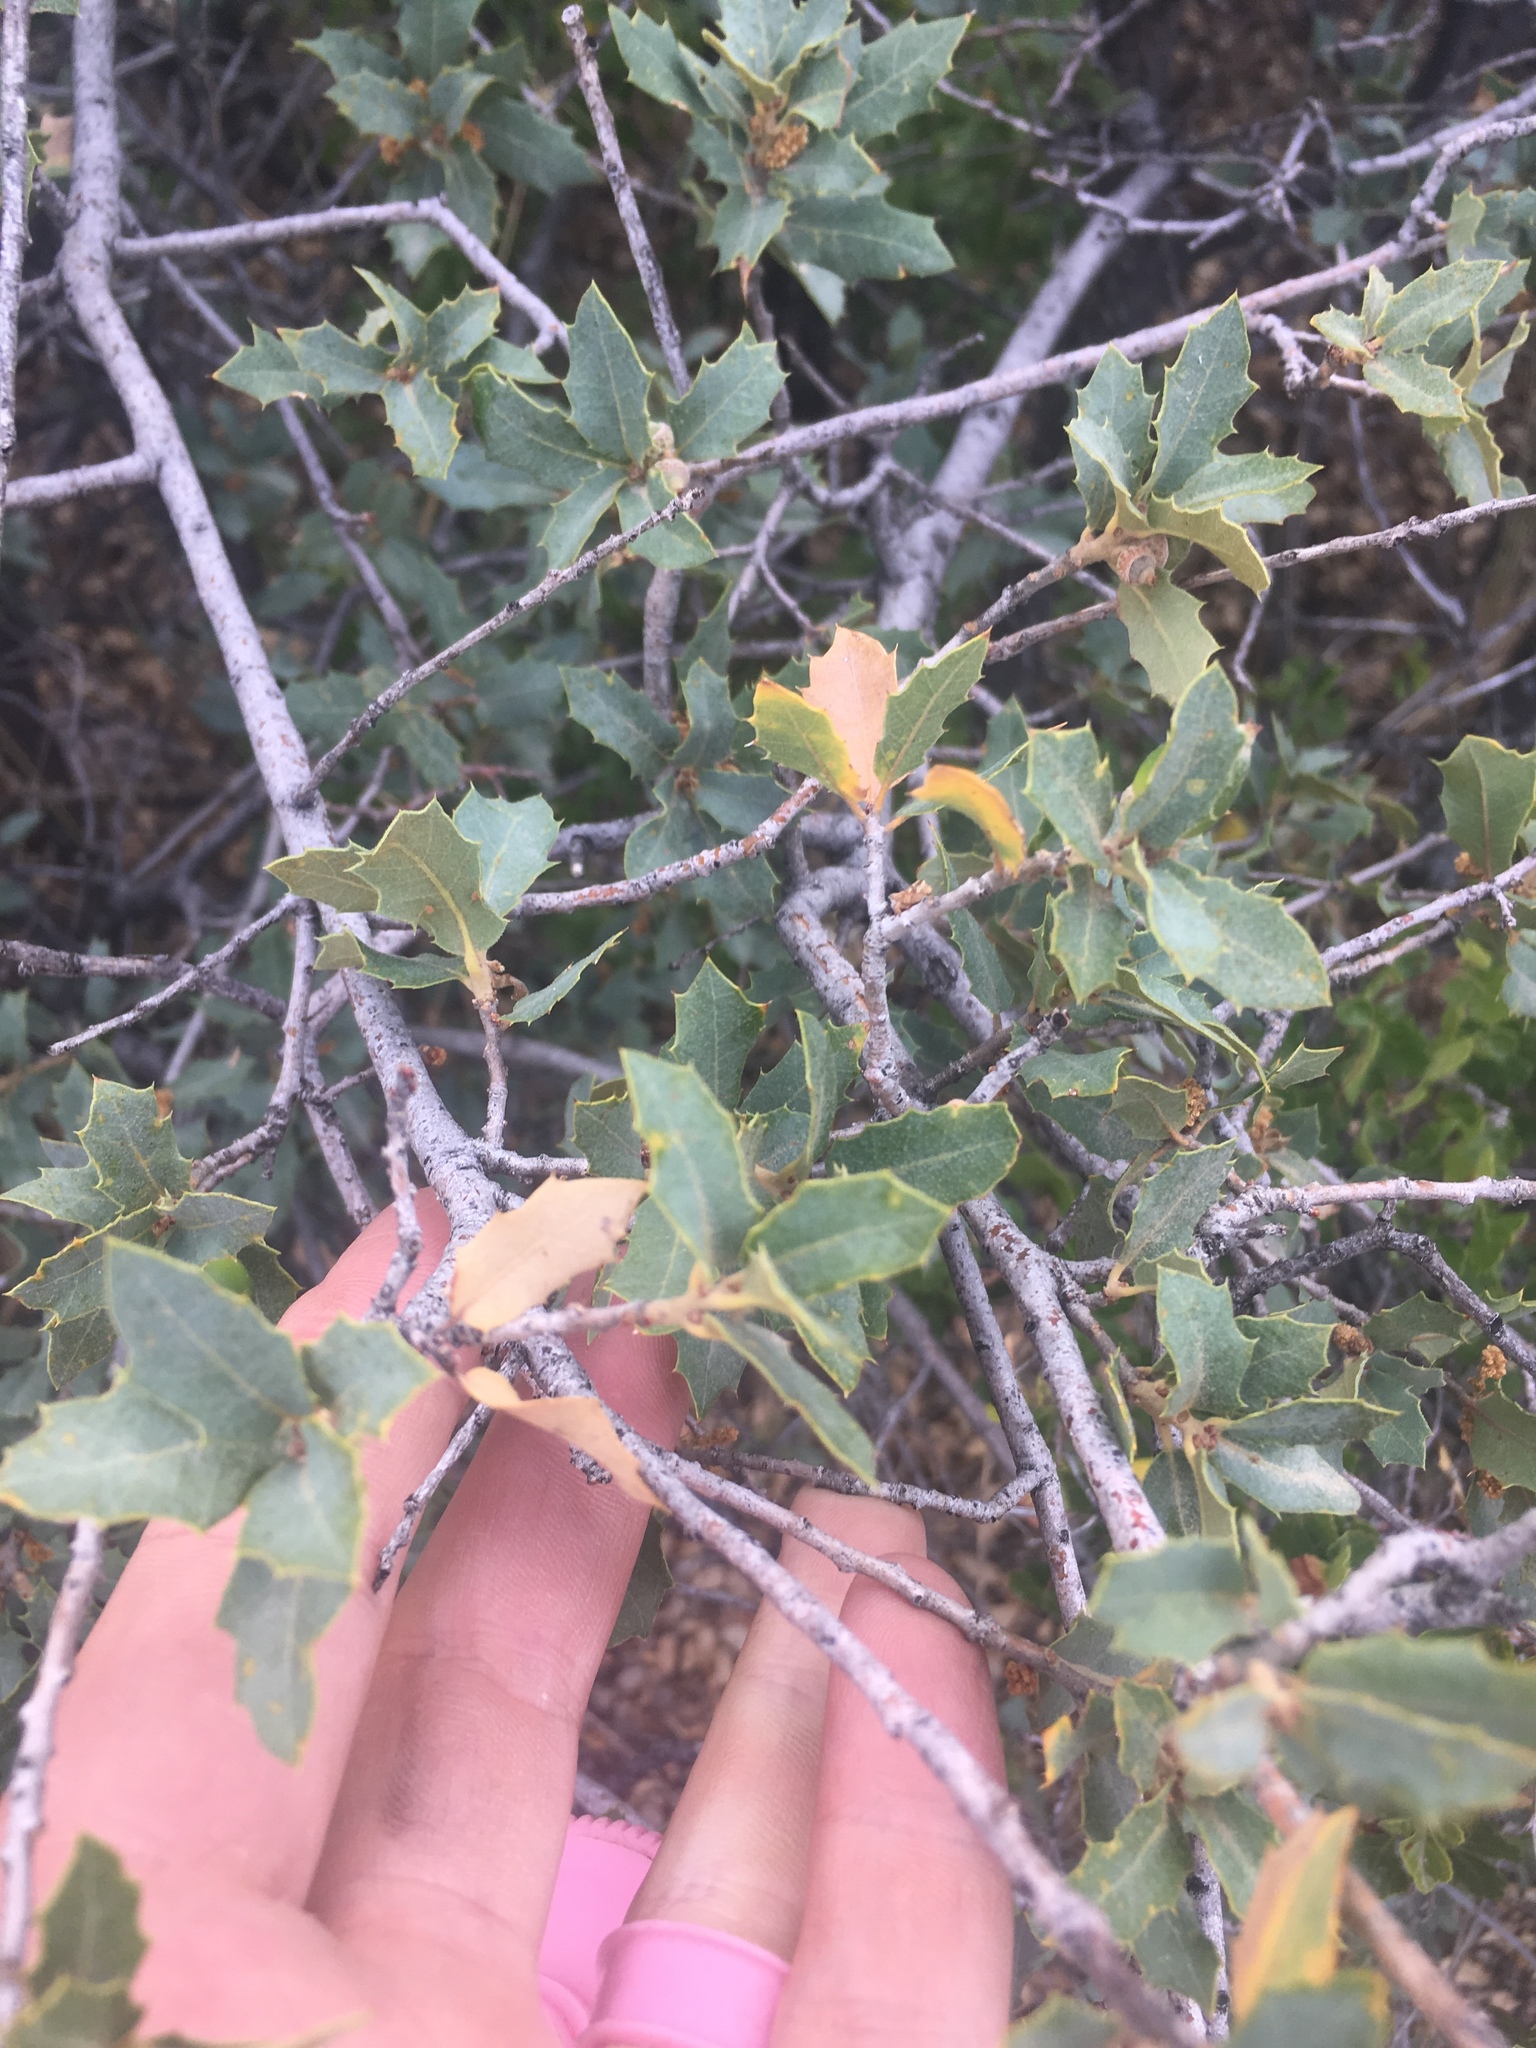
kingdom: Plantae
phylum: Tracheophyta
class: Magnoliopsida
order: Fagales
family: Fagaceae
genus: Quercus
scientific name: Quercus turbinella
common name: Sonoran scrub oak
